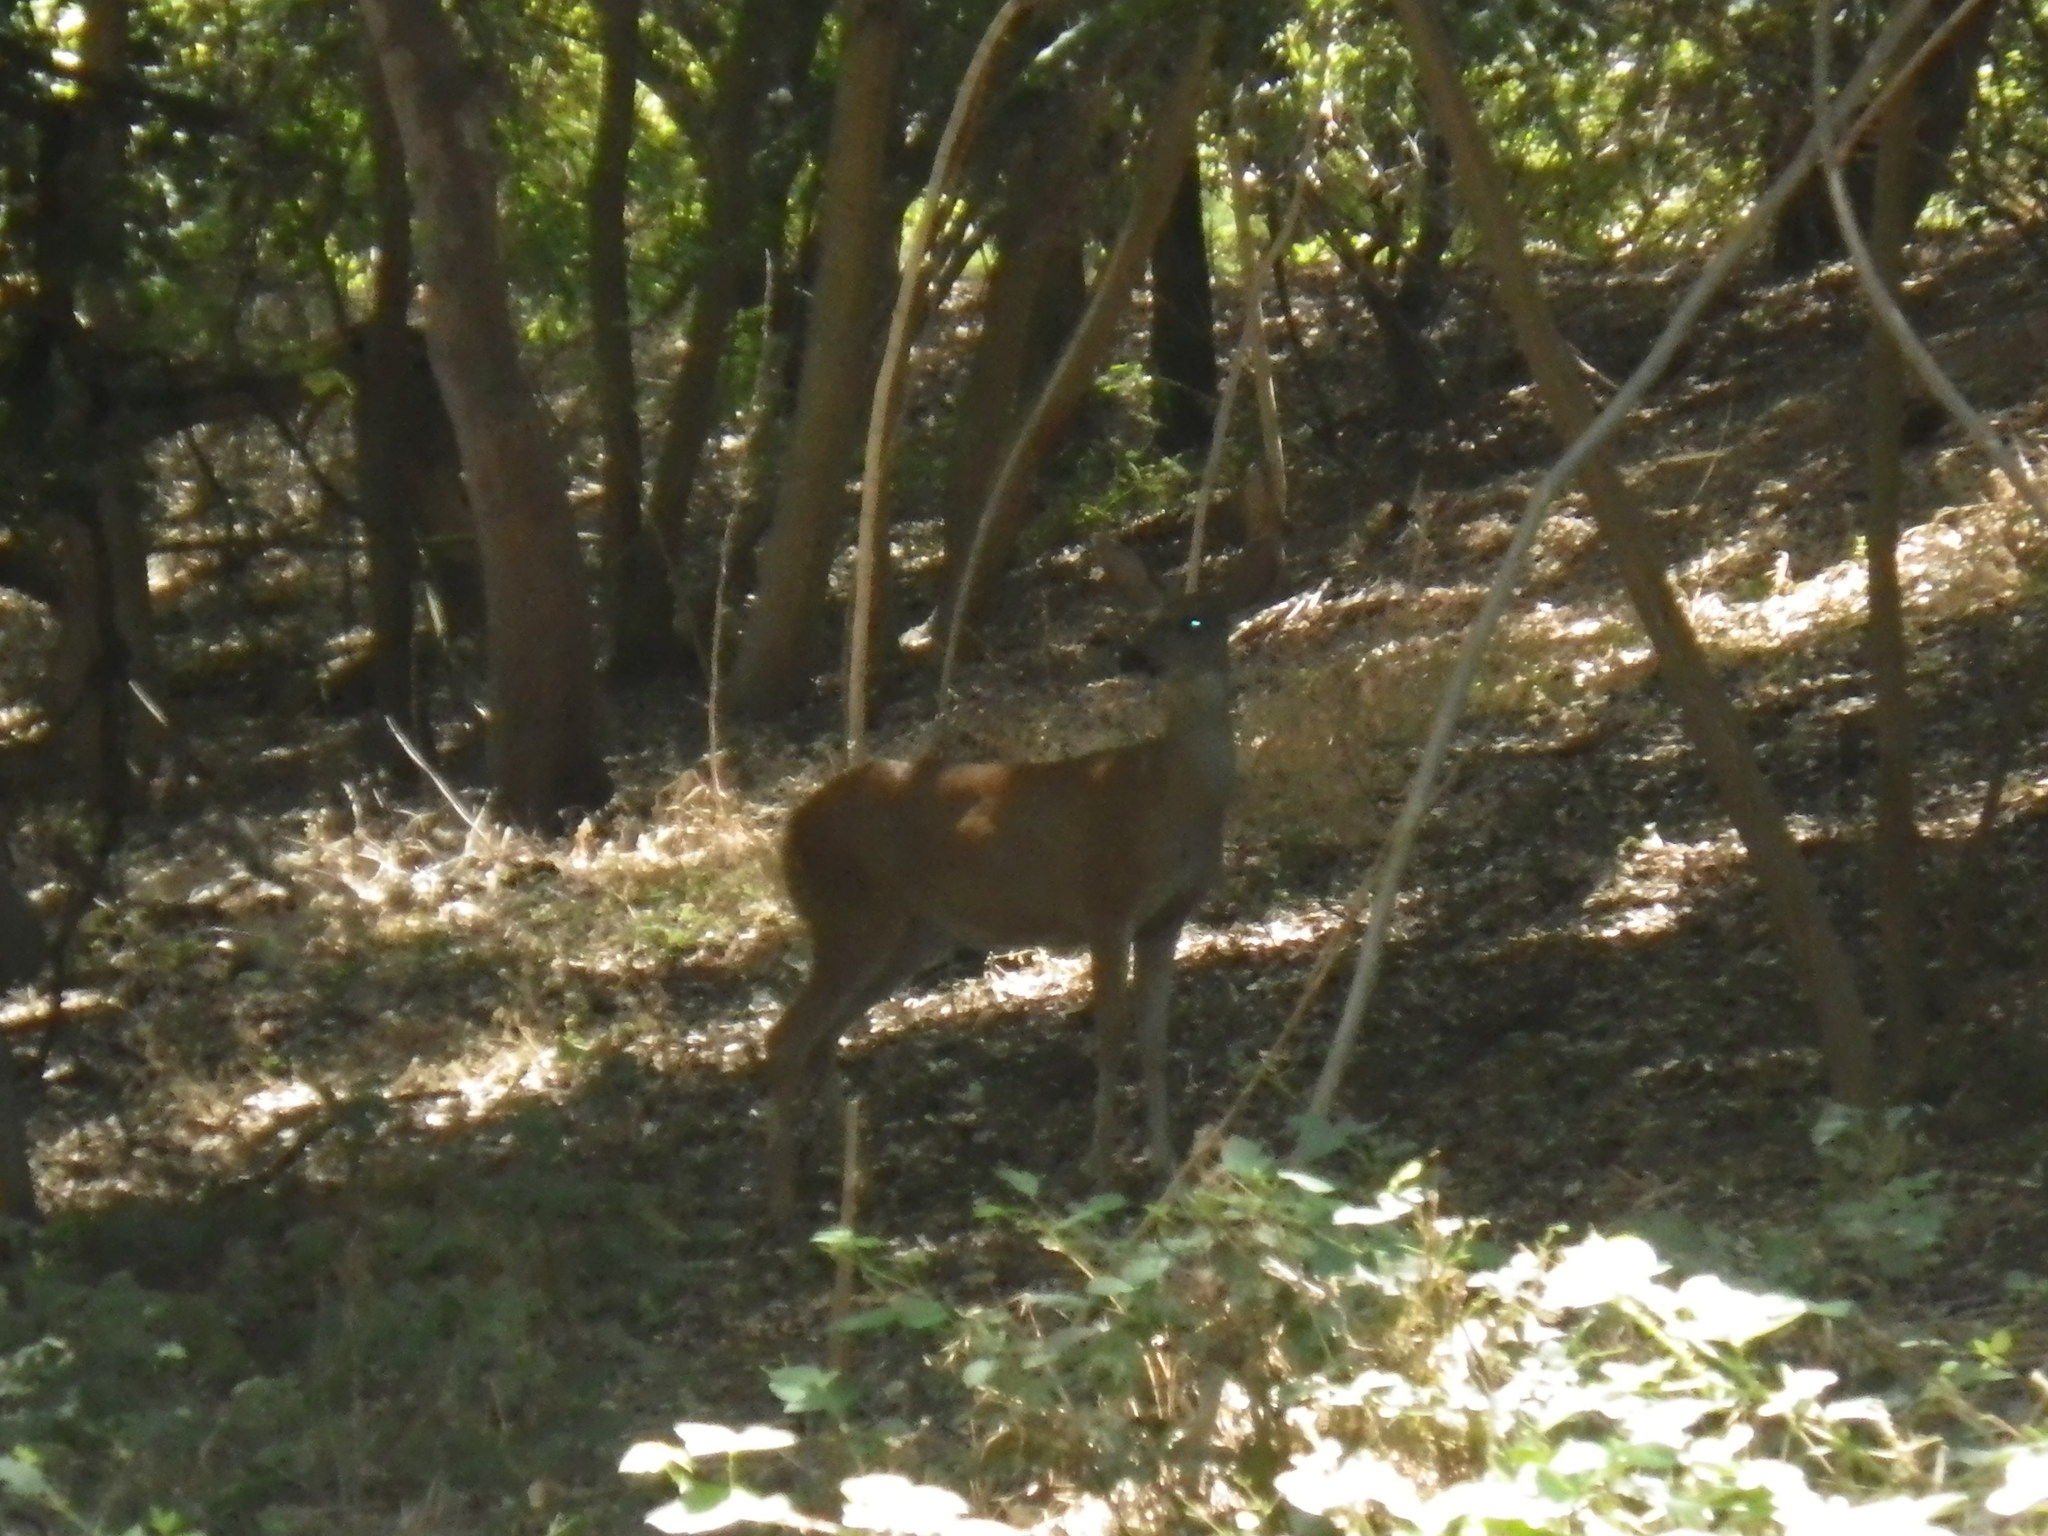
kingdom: Animalia
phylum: Chordata
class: Mammalia
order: Artiodactyla
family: Cervidae
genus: Odocoileus
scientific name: Odocoileus hemionus
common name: Mule deer
